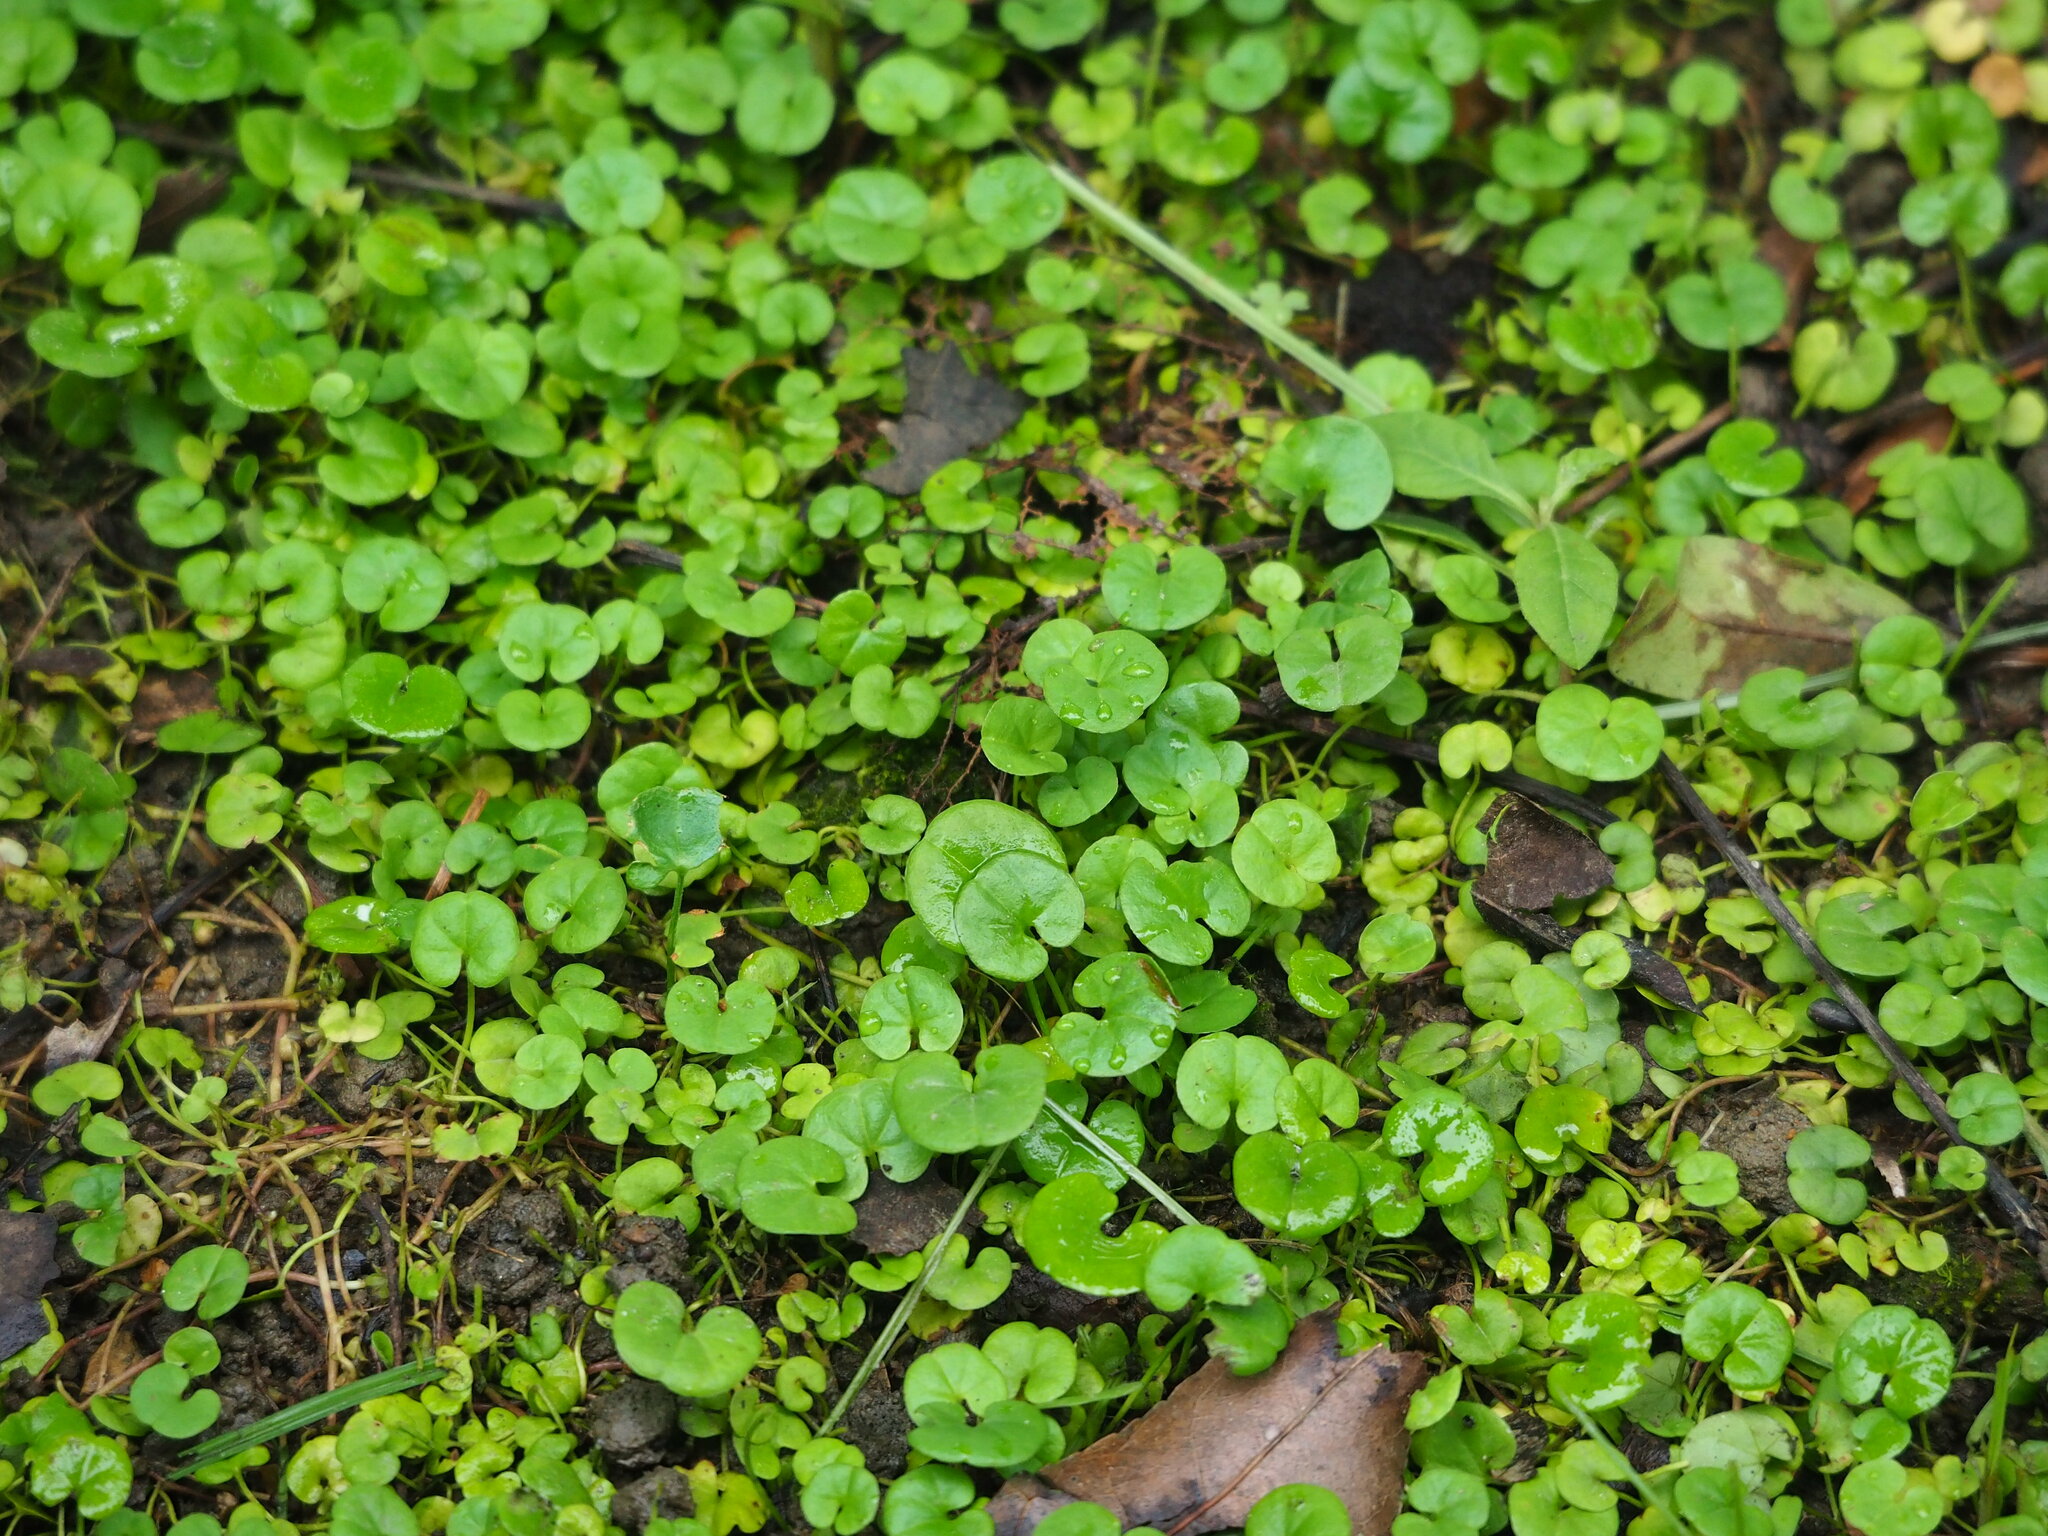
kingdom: Plantae
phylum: Tracheophyta
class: Magnoliopsida
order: Solanales
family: Convolvulaceae
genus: Dichondra
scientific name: Dichondra micrantha
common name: Kidneyweed
